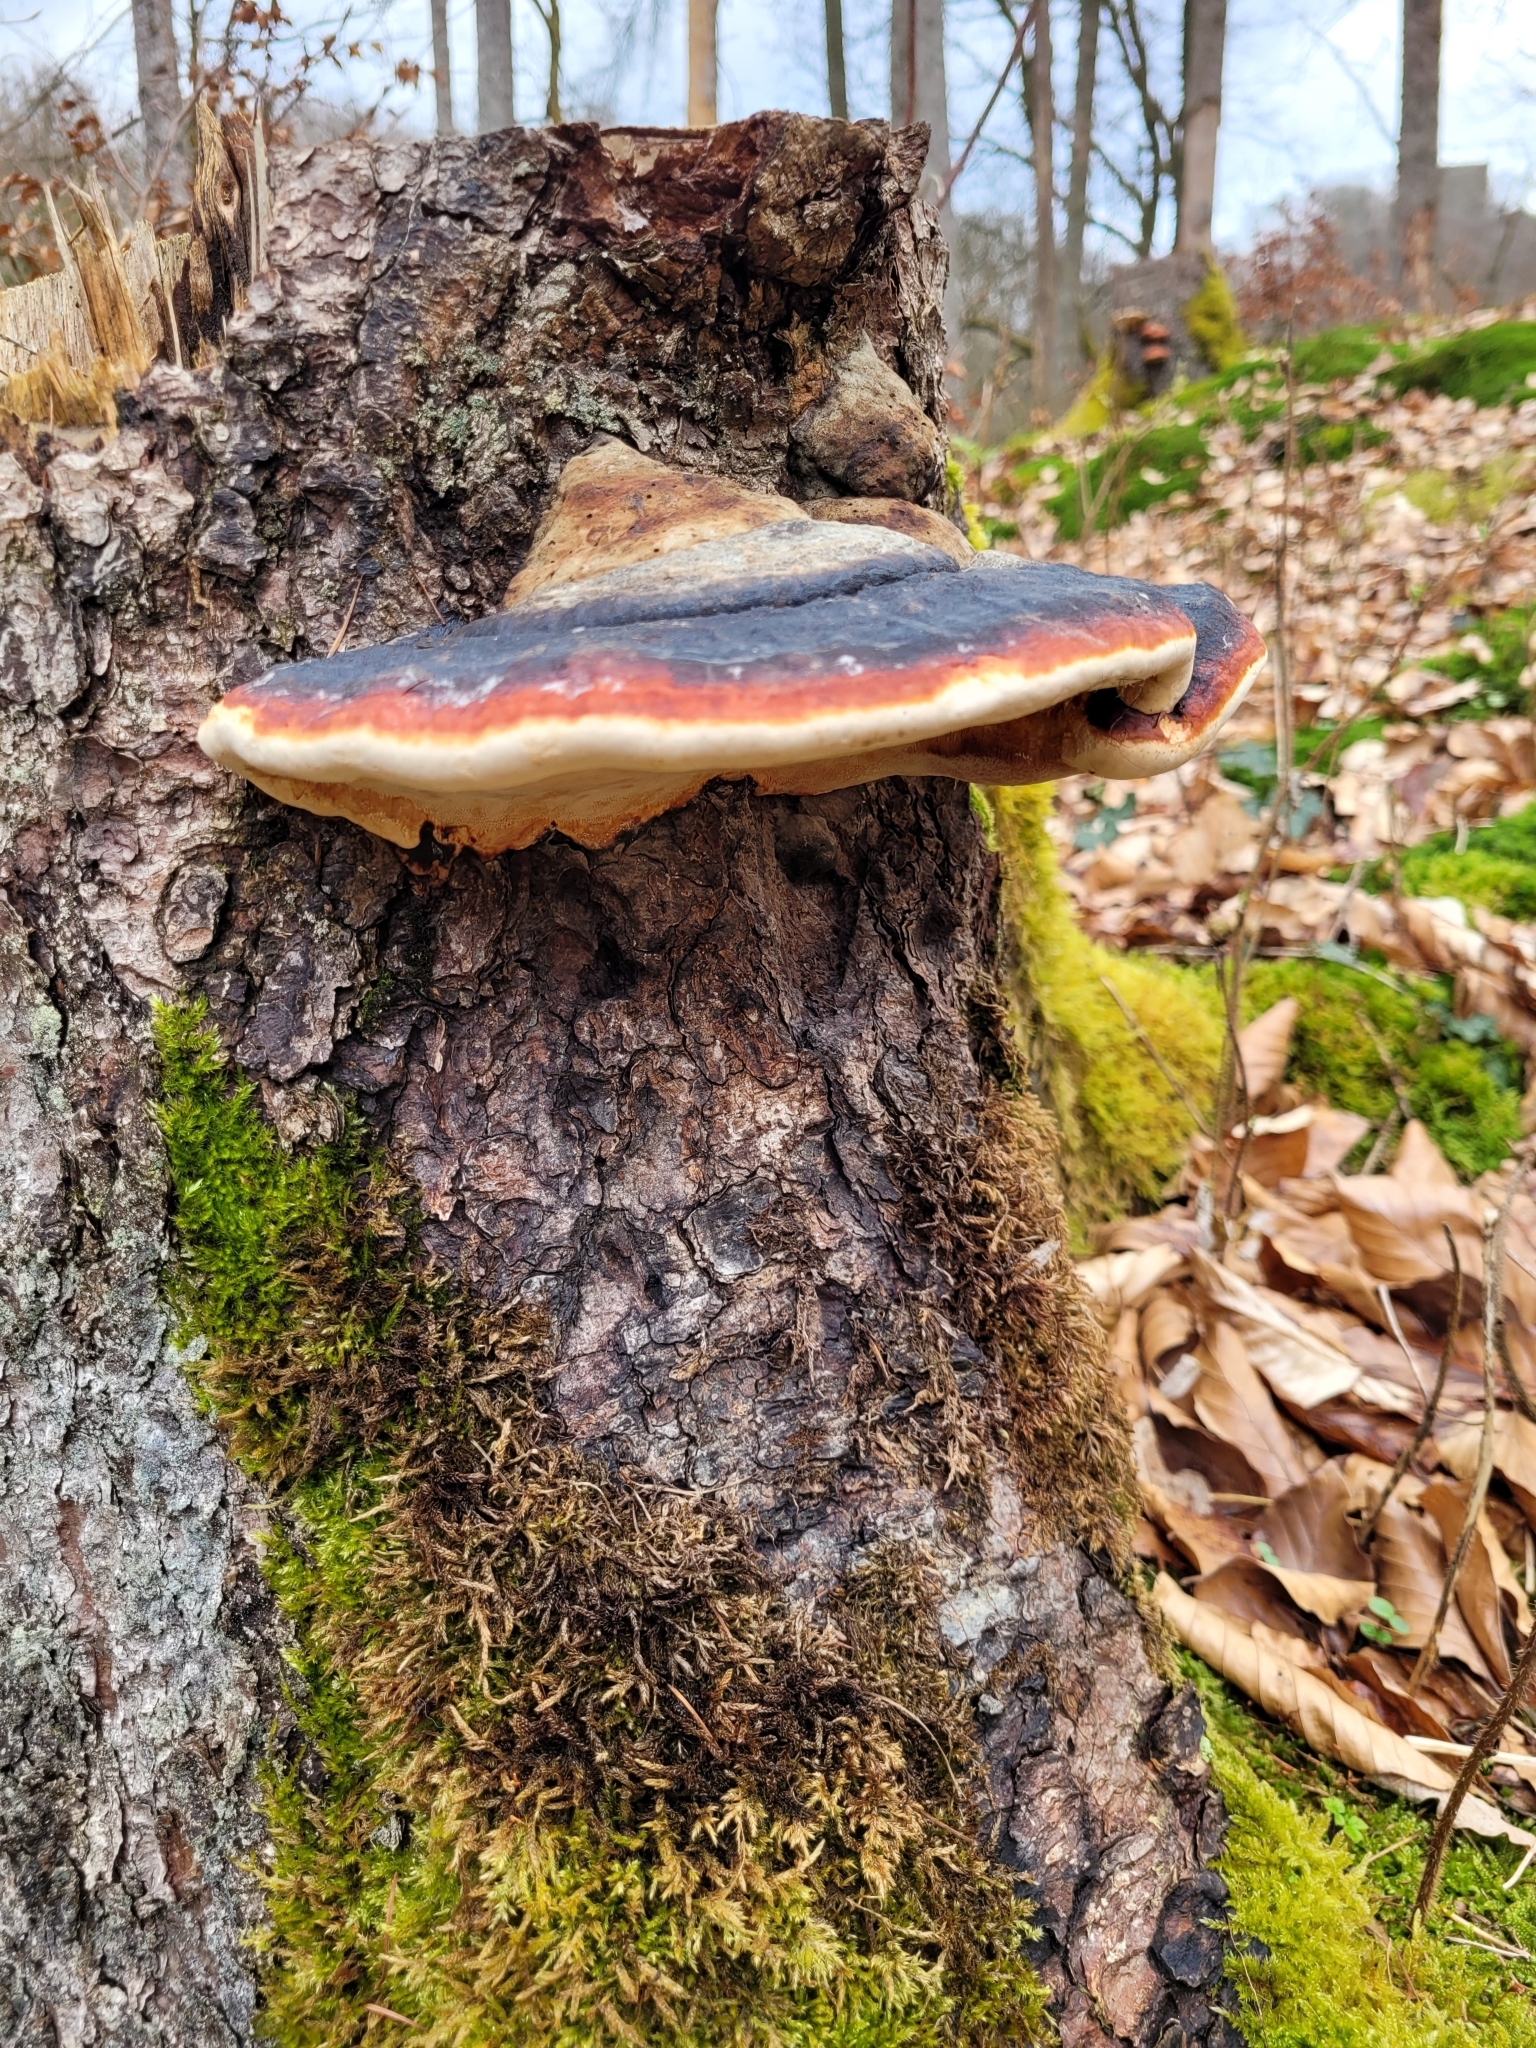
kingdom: Fungi
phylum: Basidiomycota
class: Agaricomycetes
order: Polyporales
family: Fomitopsidaceae
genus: Fomitopsis
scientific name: Fomitopsis pinicola
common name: Red-belted bracket
